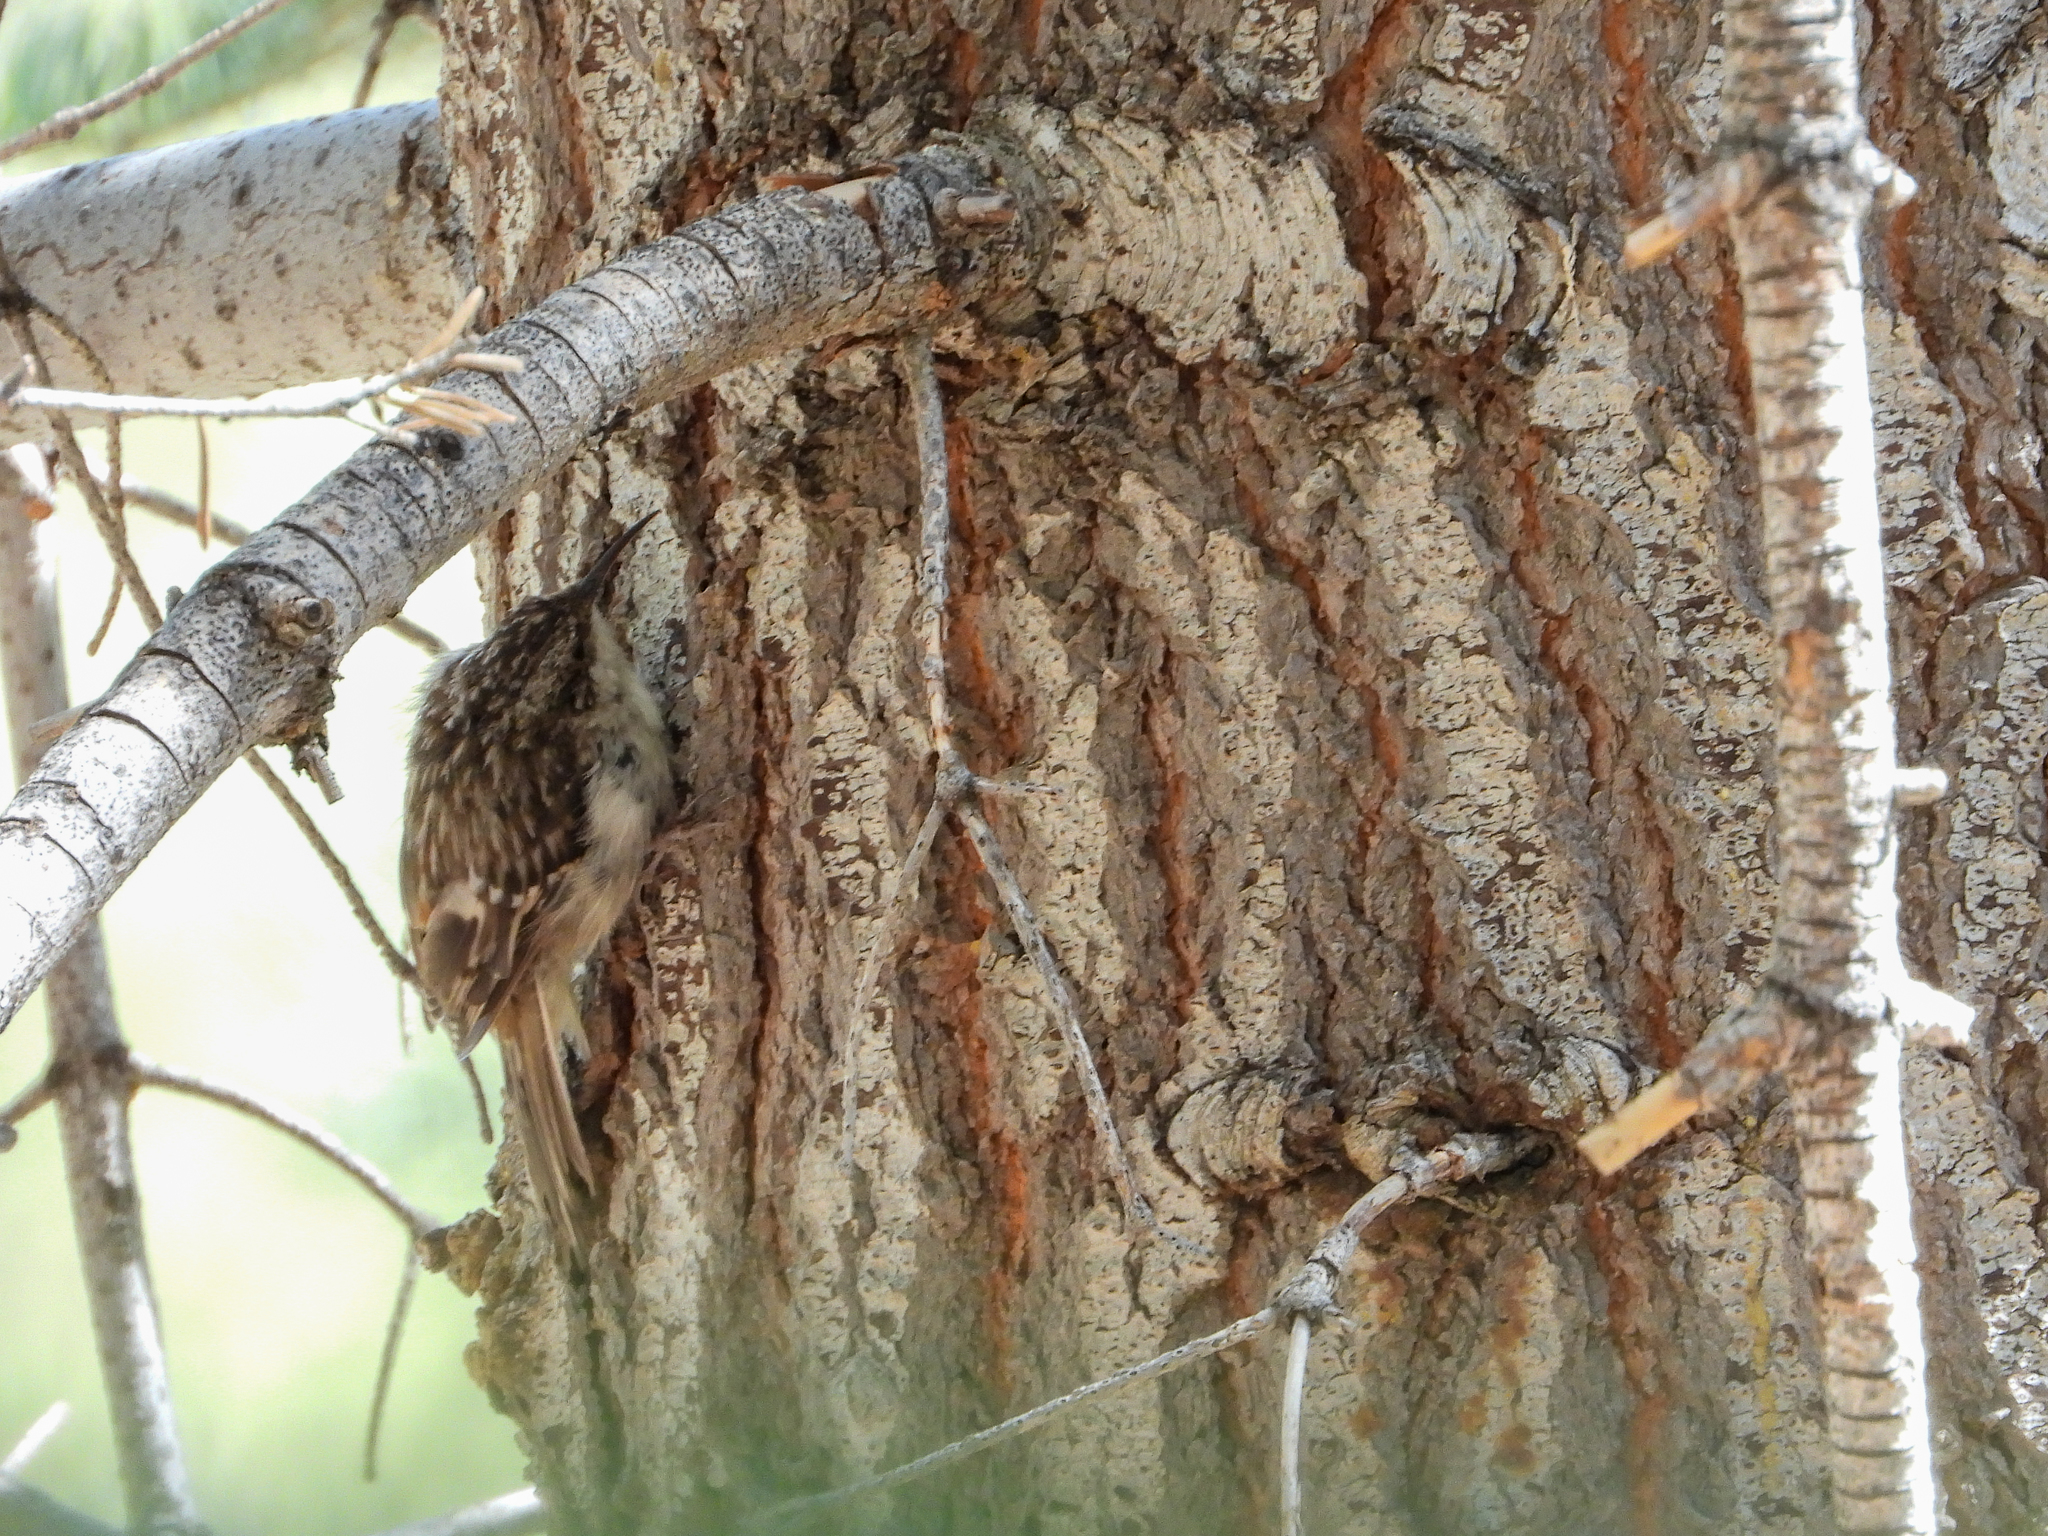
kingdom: Animalia
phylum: Chordata
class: Aves
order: Passeriformes
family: Certhiidae
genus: Certhia
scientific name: Certhia americana
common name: Brown creeper
